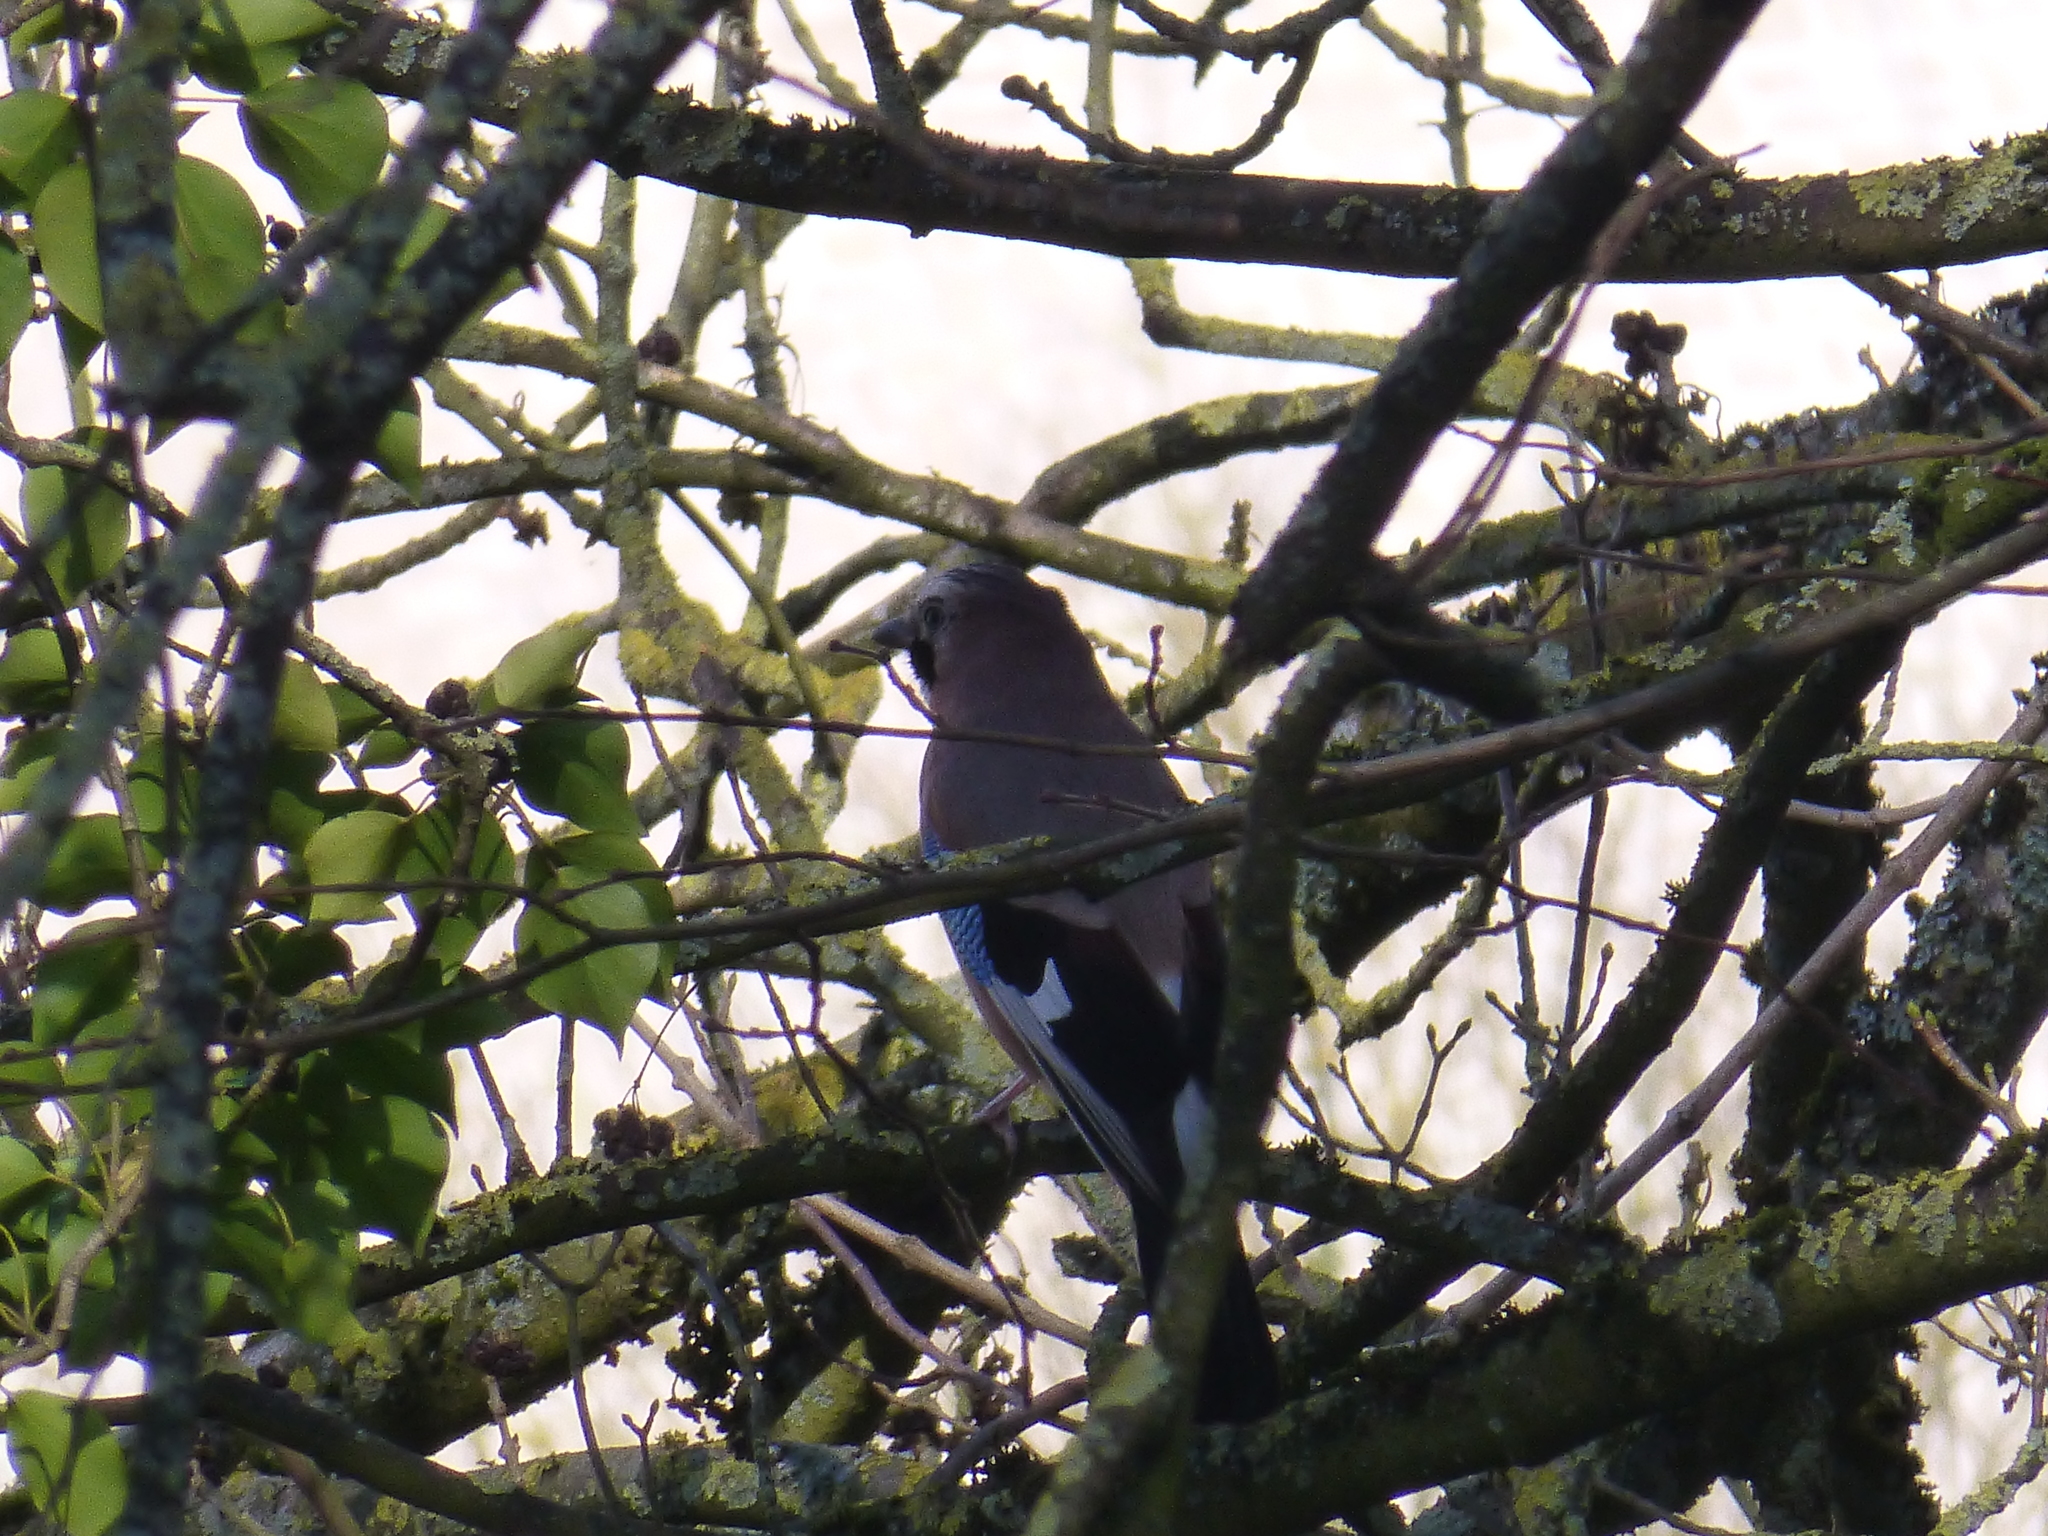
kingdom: Animalia
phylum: Chordata
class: Aves
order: Passeriformes
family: Corvidae
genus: Garrulus
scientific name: Garrulus glandarius
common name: Eurasian jay
